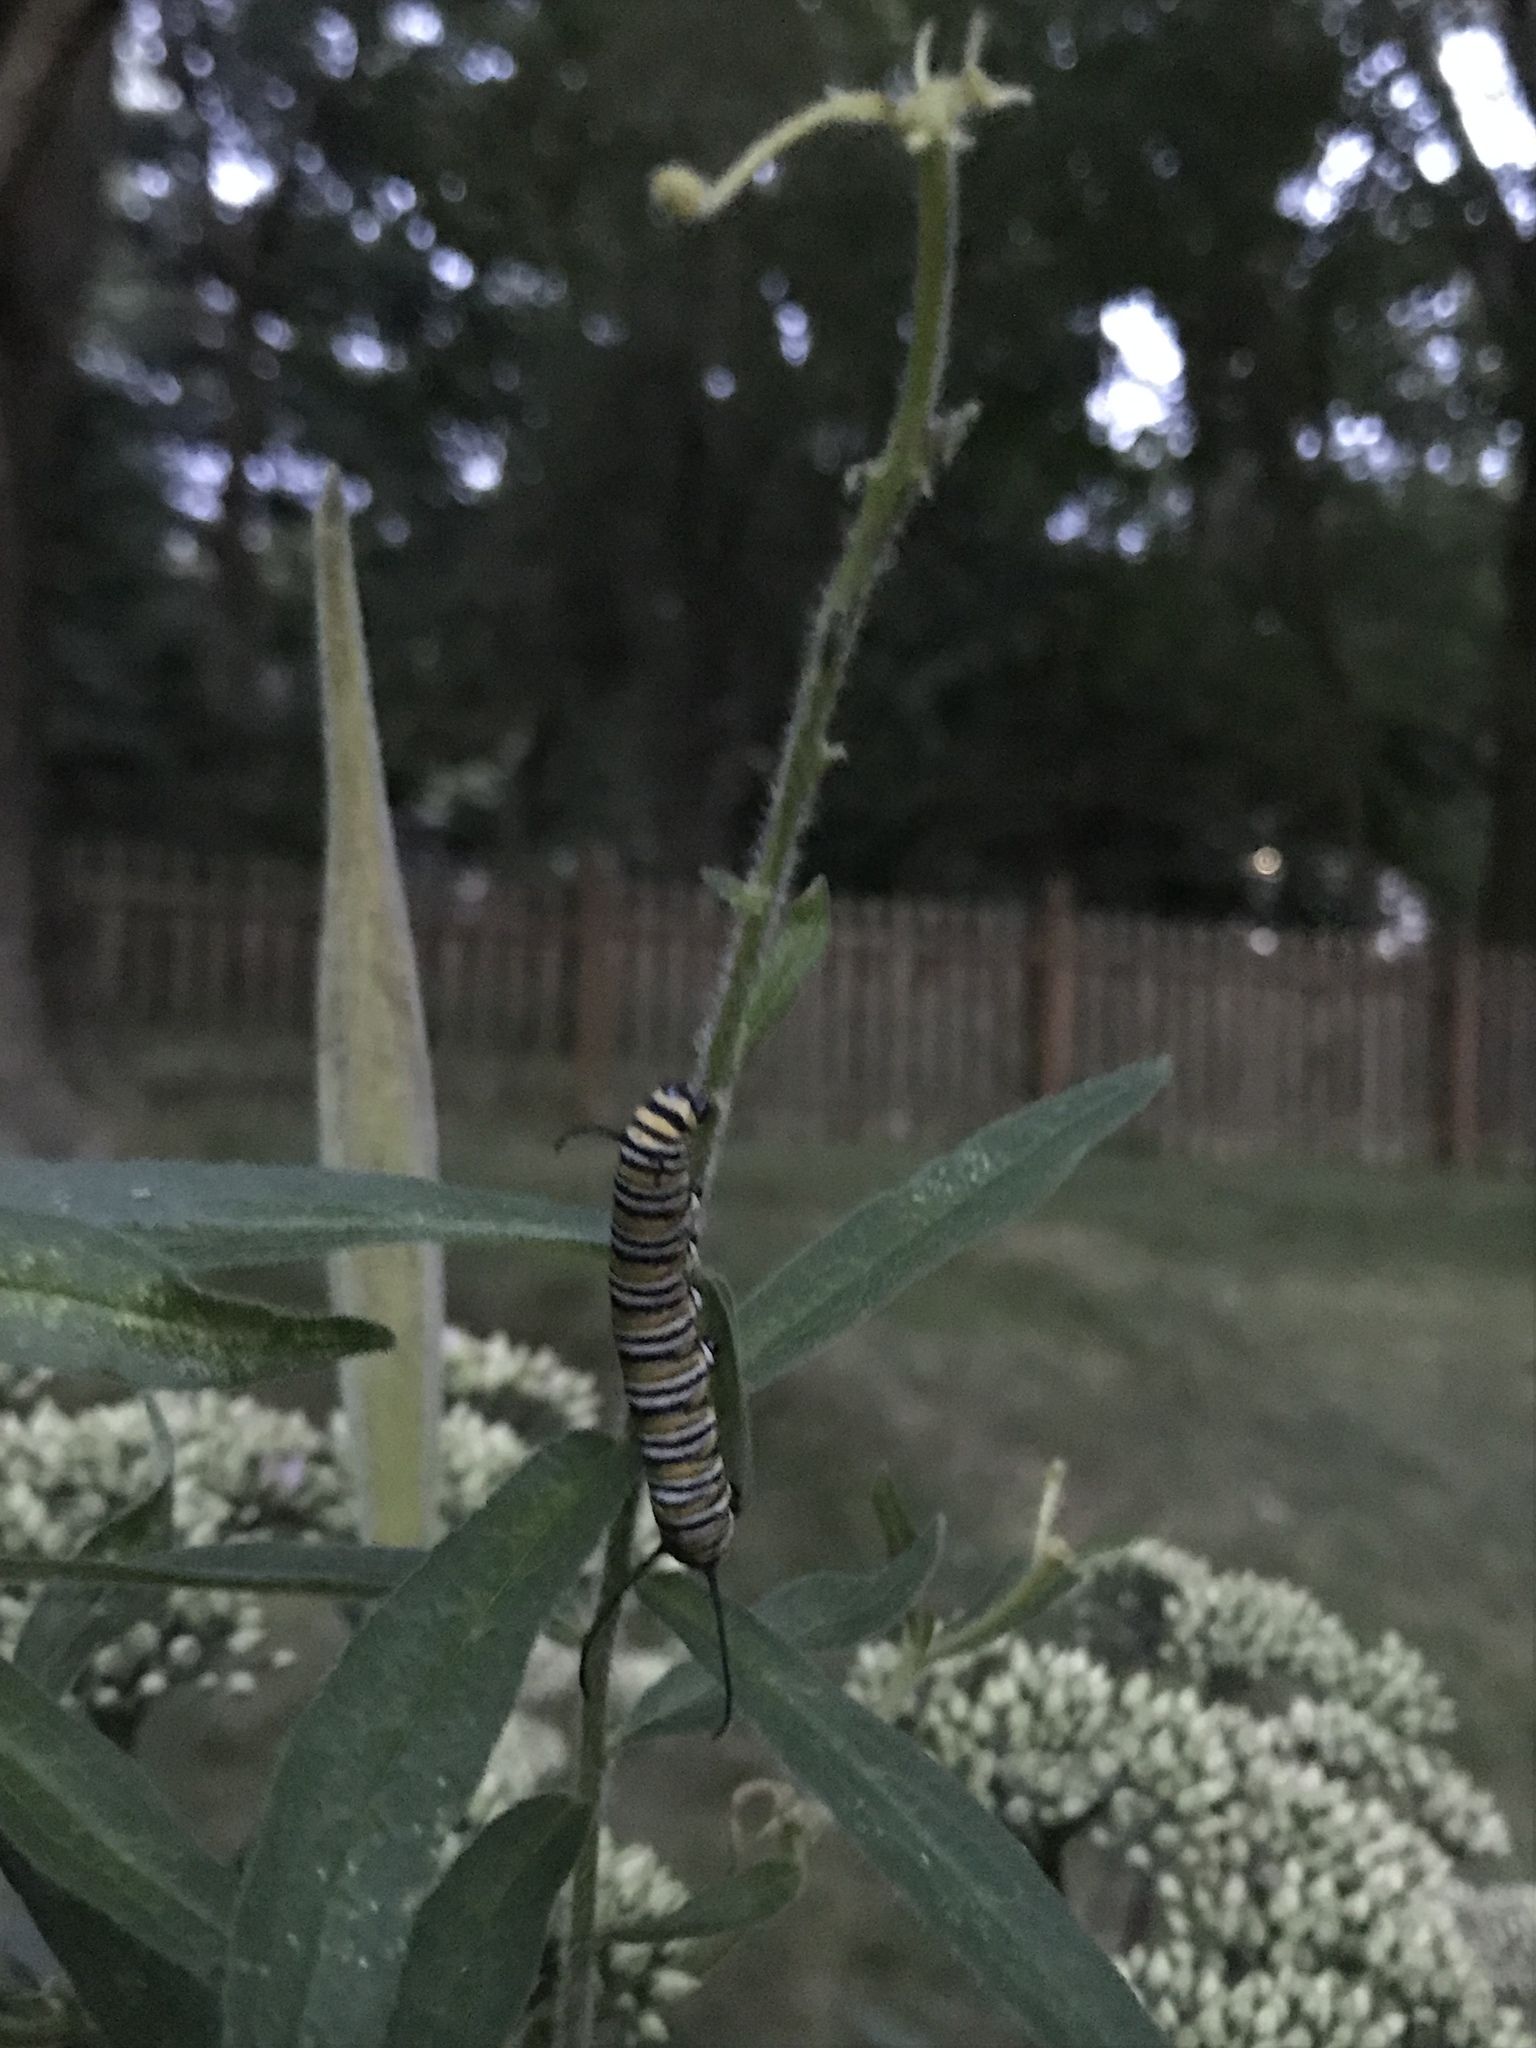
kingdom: Animalia
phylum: Arthropoda
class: Insecta
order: Lepidoptera
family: Nymphalidae
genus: Danaus
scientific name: Danaus plexippus
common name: Monarch
